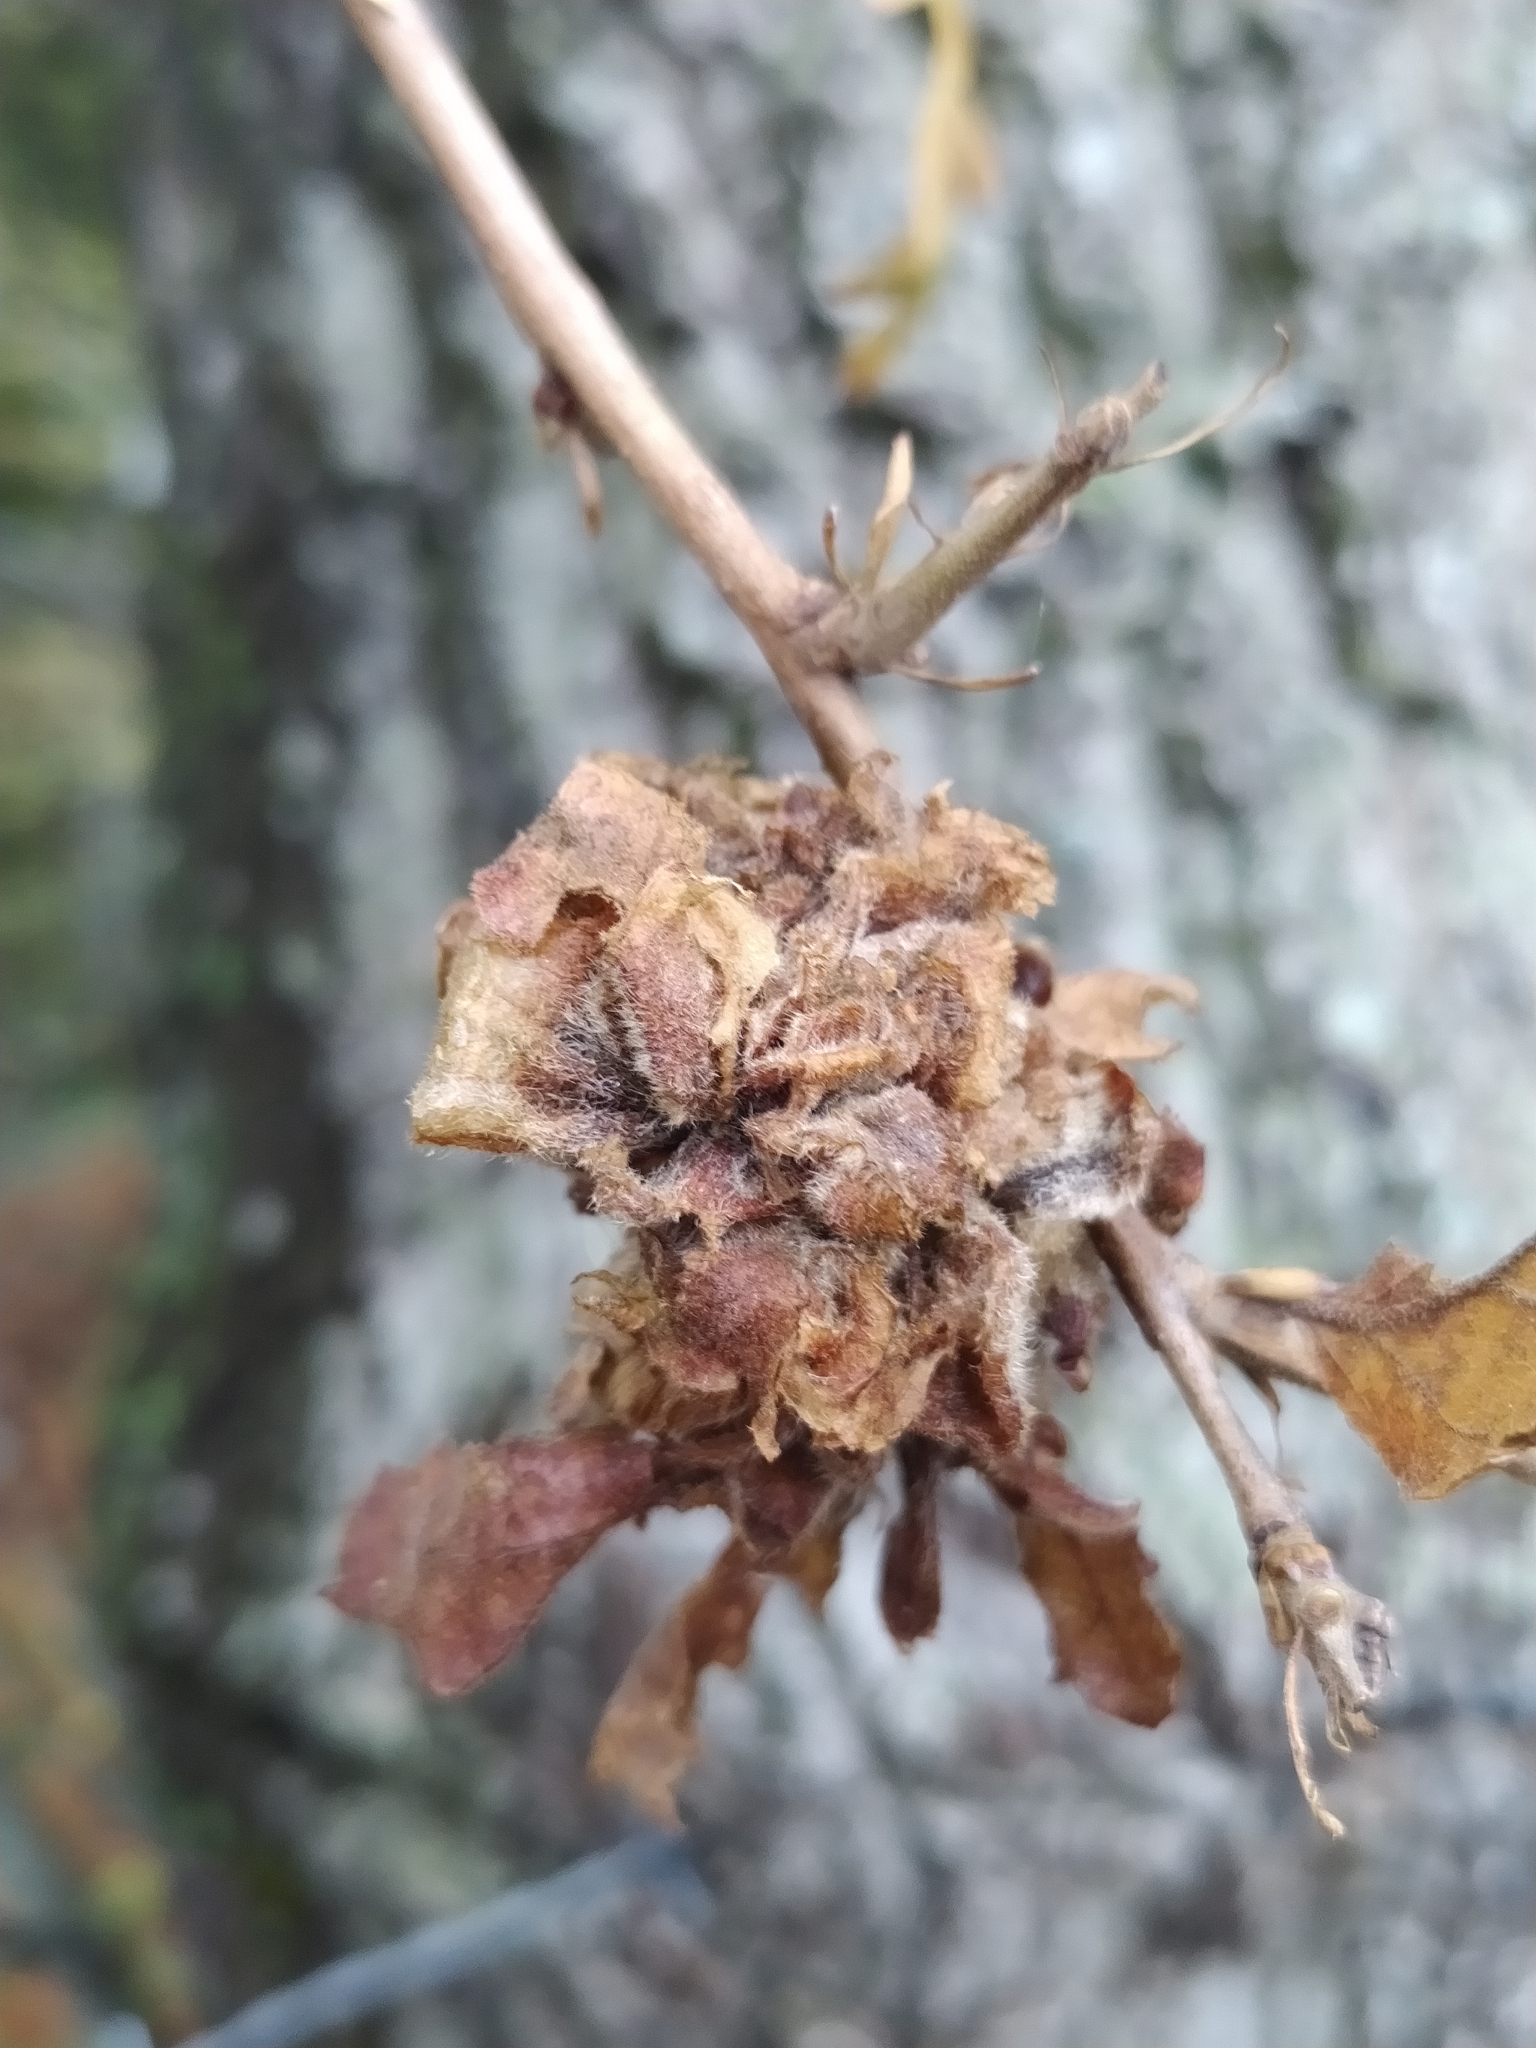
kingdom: Animalia
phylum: Arthropoda
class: Insecta
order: Hymenoptera
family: Cynipidae
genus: Andricus
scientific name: Andricus
